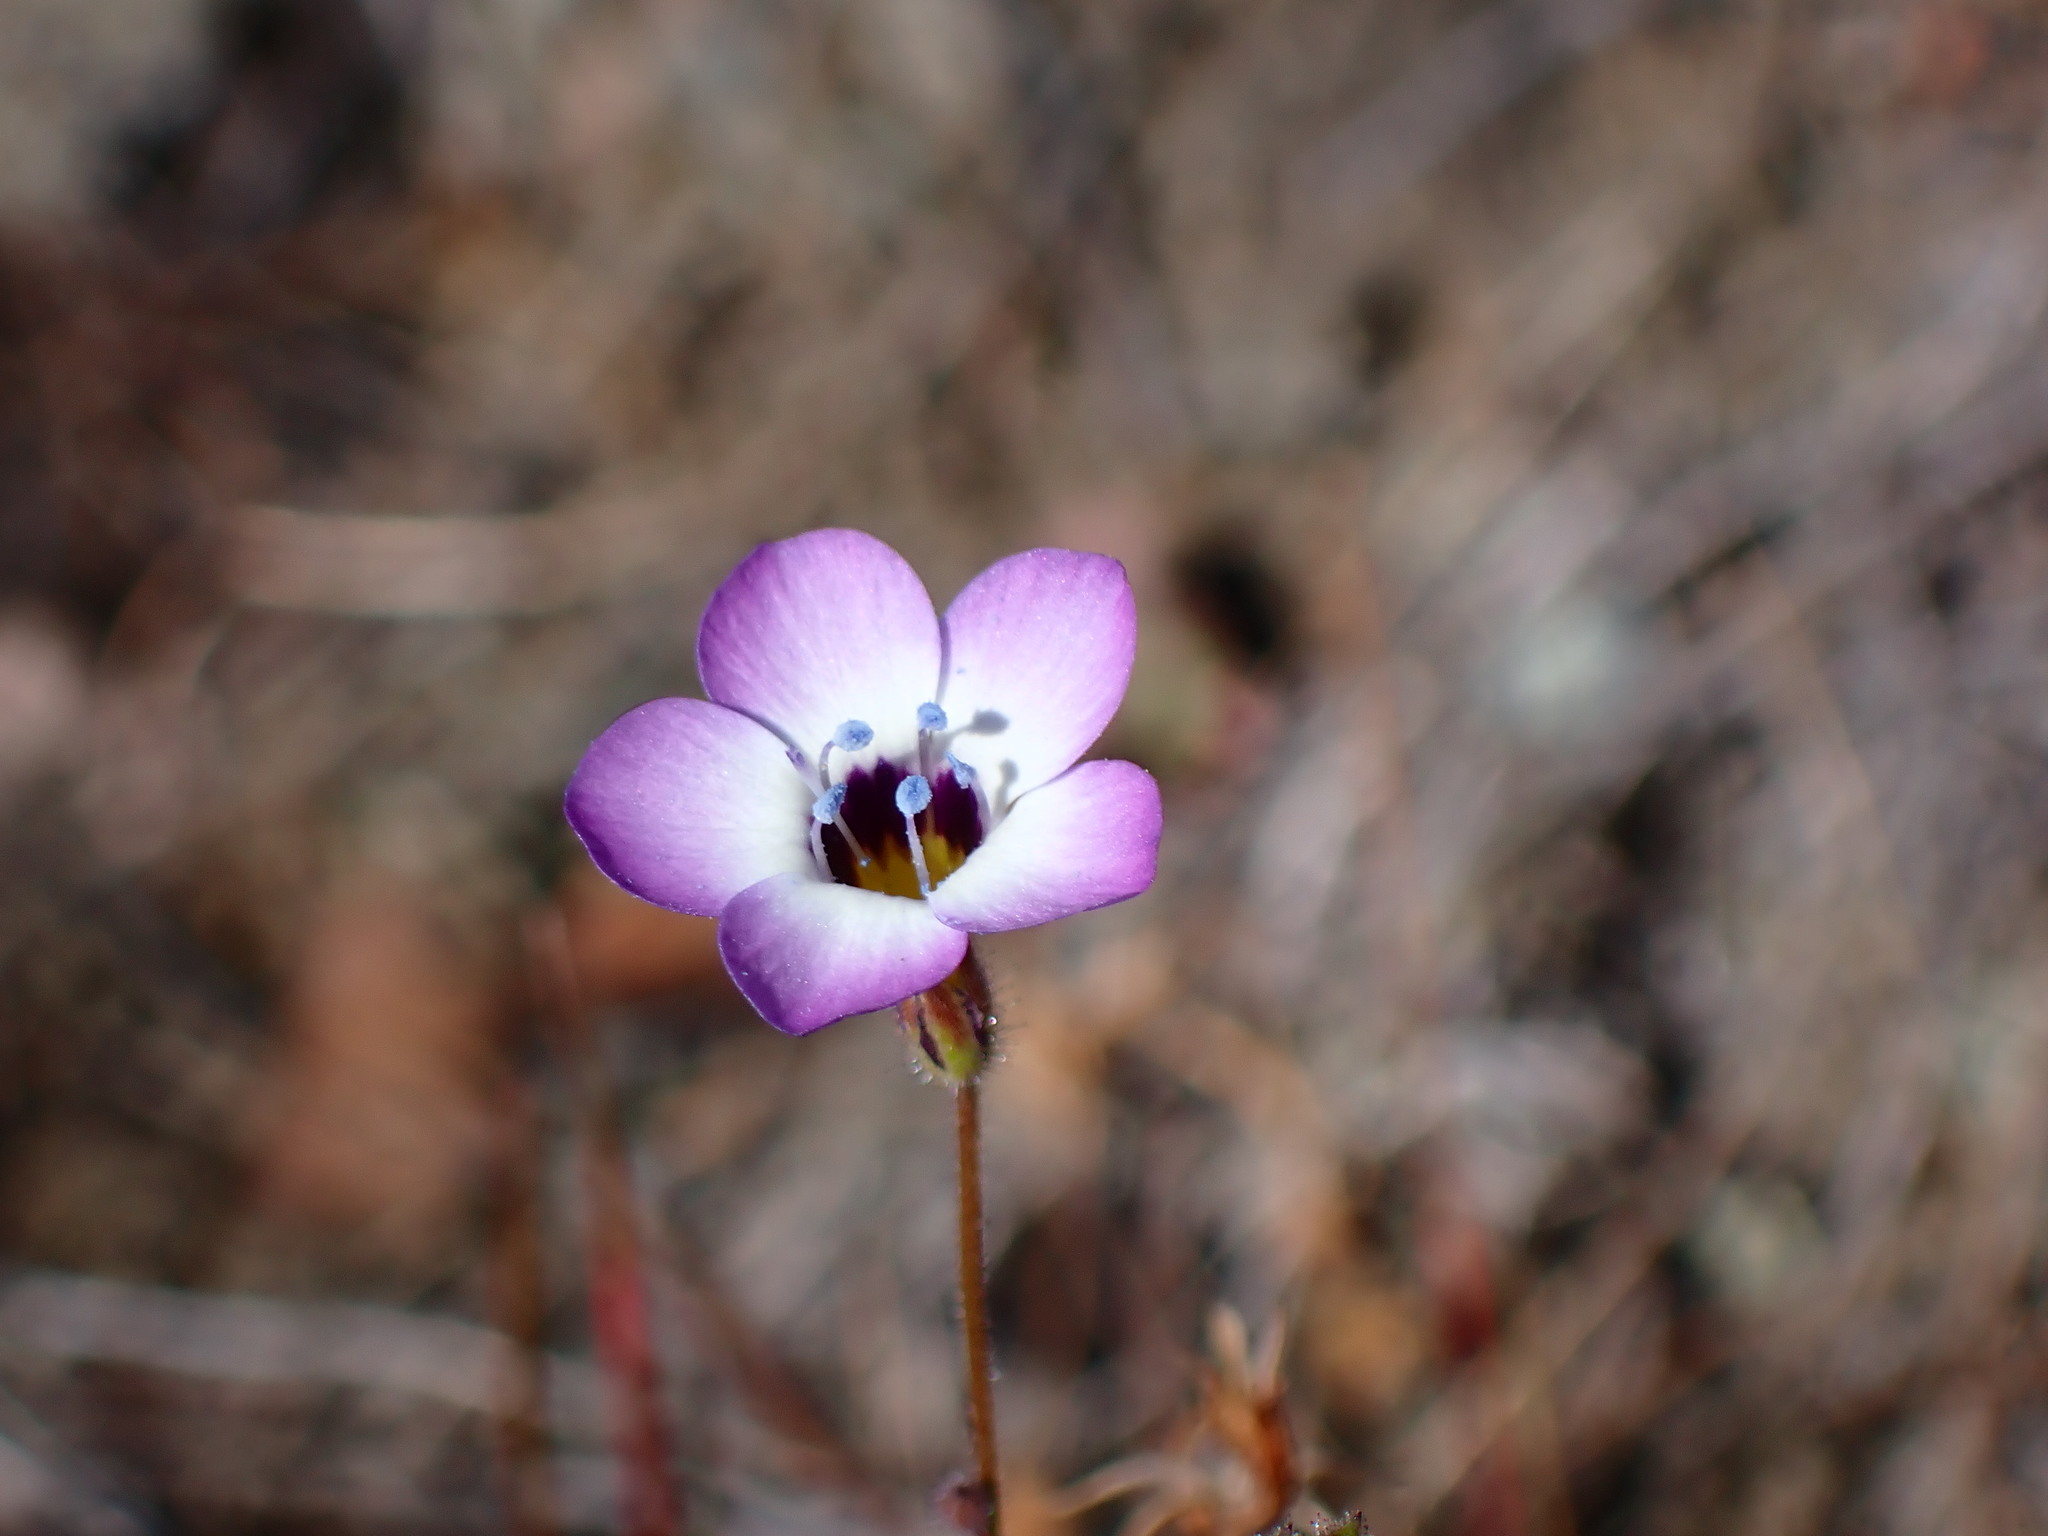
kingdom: Plantae
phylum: Tracheophyta
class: Magnoliopsida
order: Ericales
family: Polemoniaceae
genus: Gilia
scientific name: Gilia tricolor
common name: Bird's-eyes
